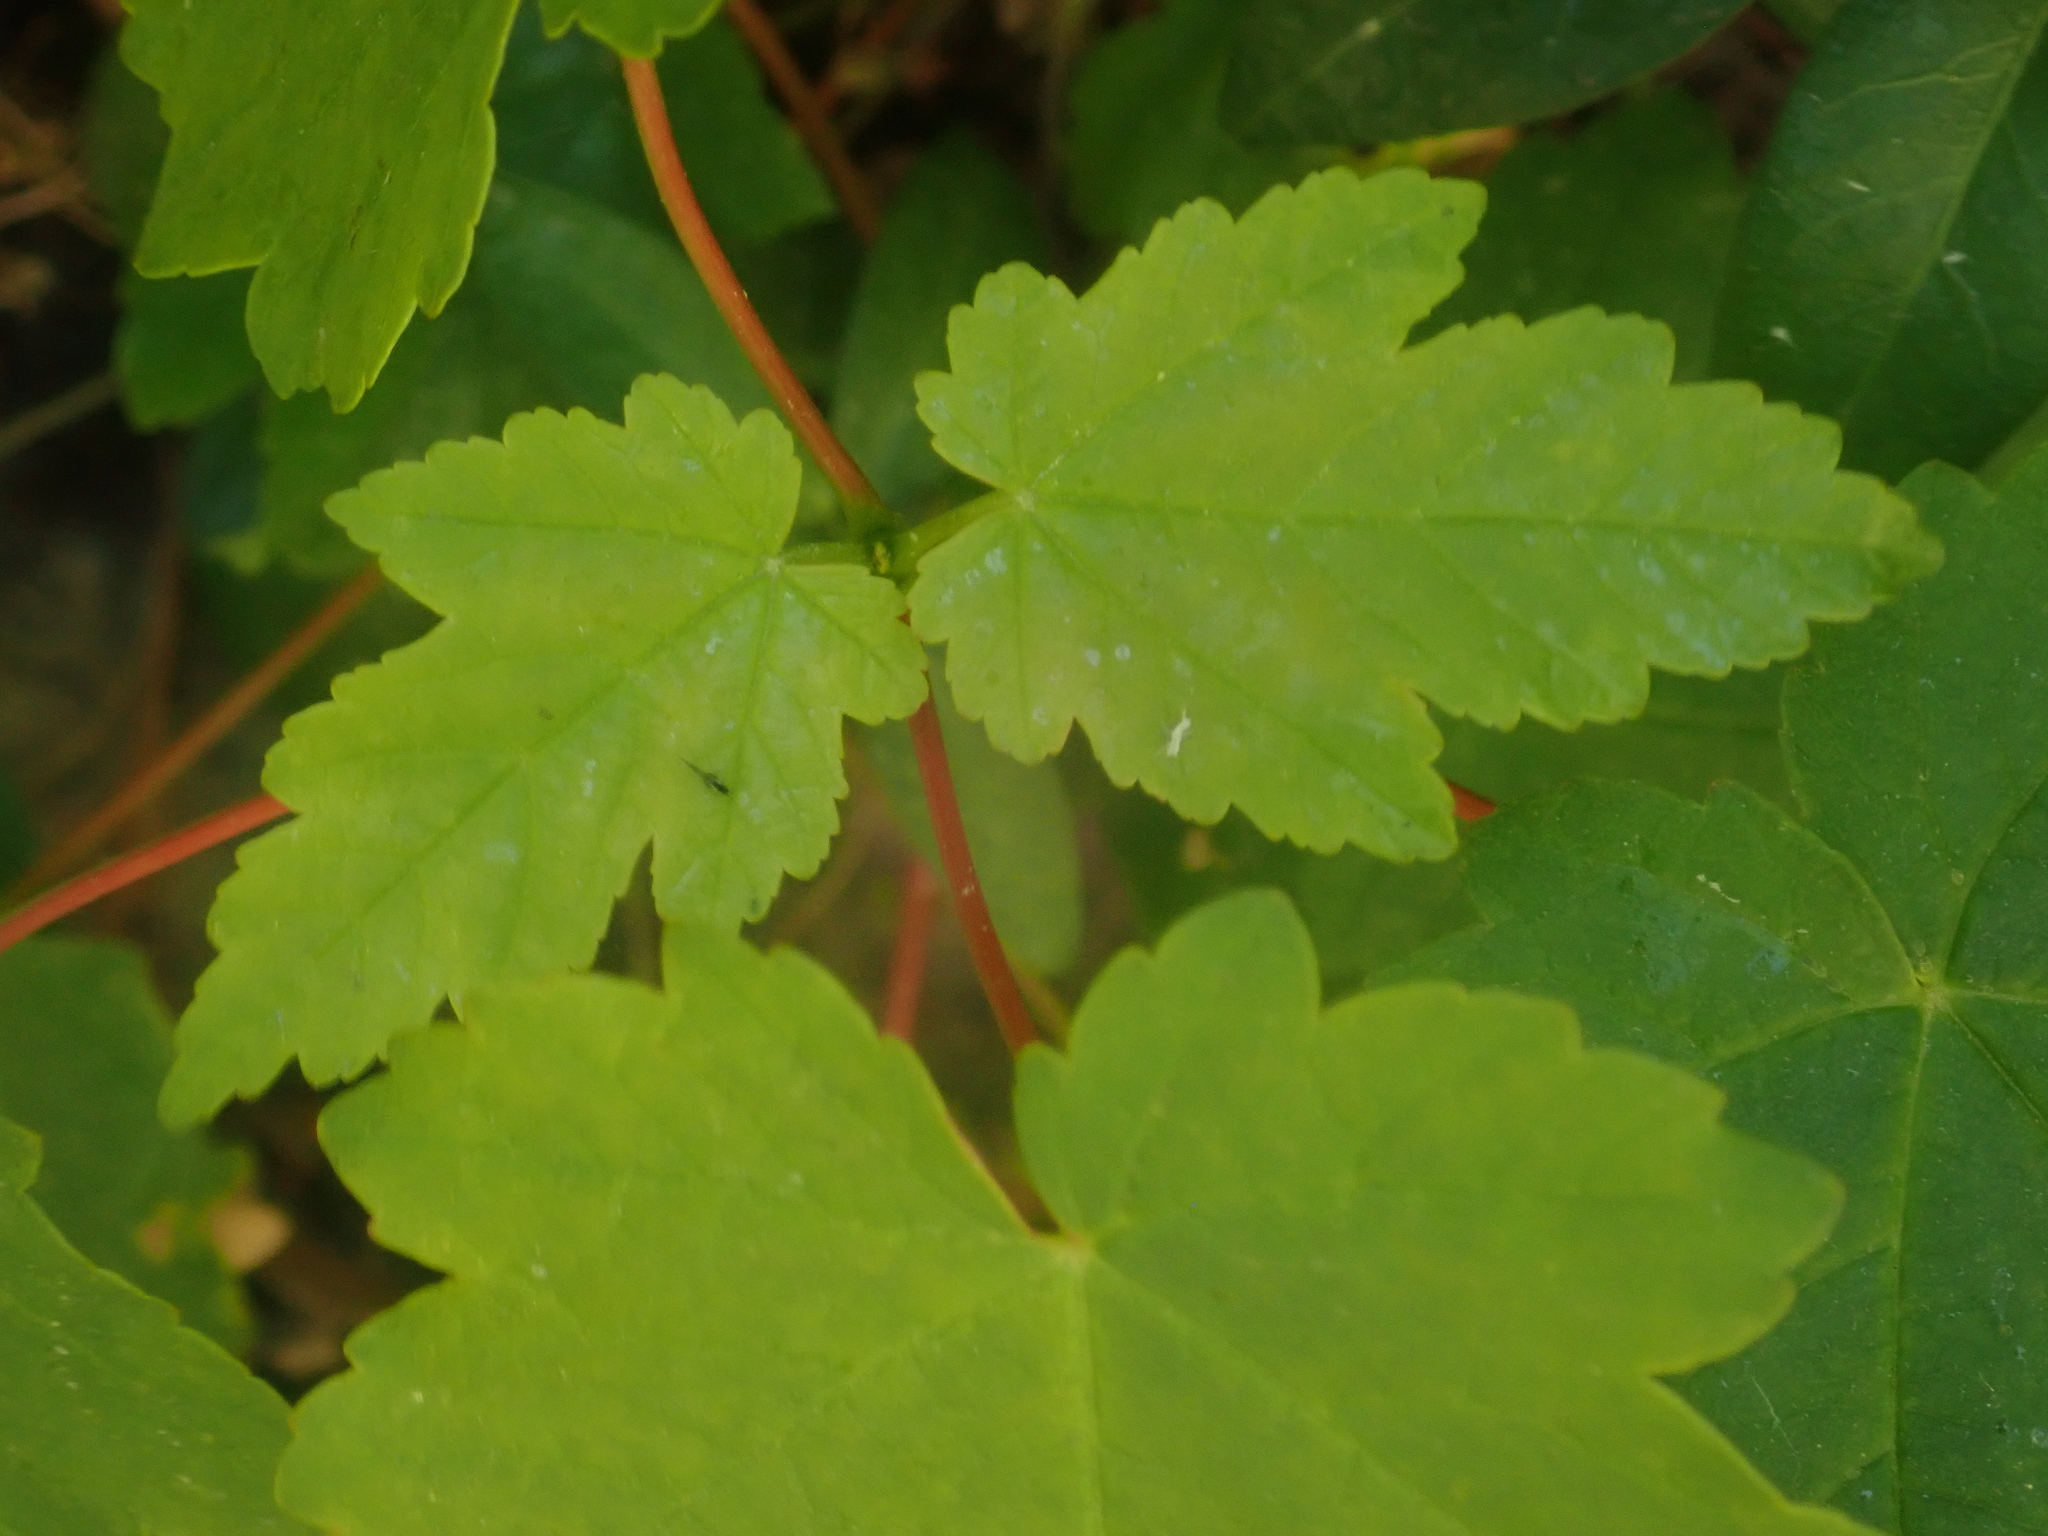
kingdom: Plantae
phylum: Tracheophyta
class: Magnoliopsida
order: Sapindales
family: Sapindaceae
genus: Acer
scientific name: Acer pseudoplatanus
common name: Sycamore
